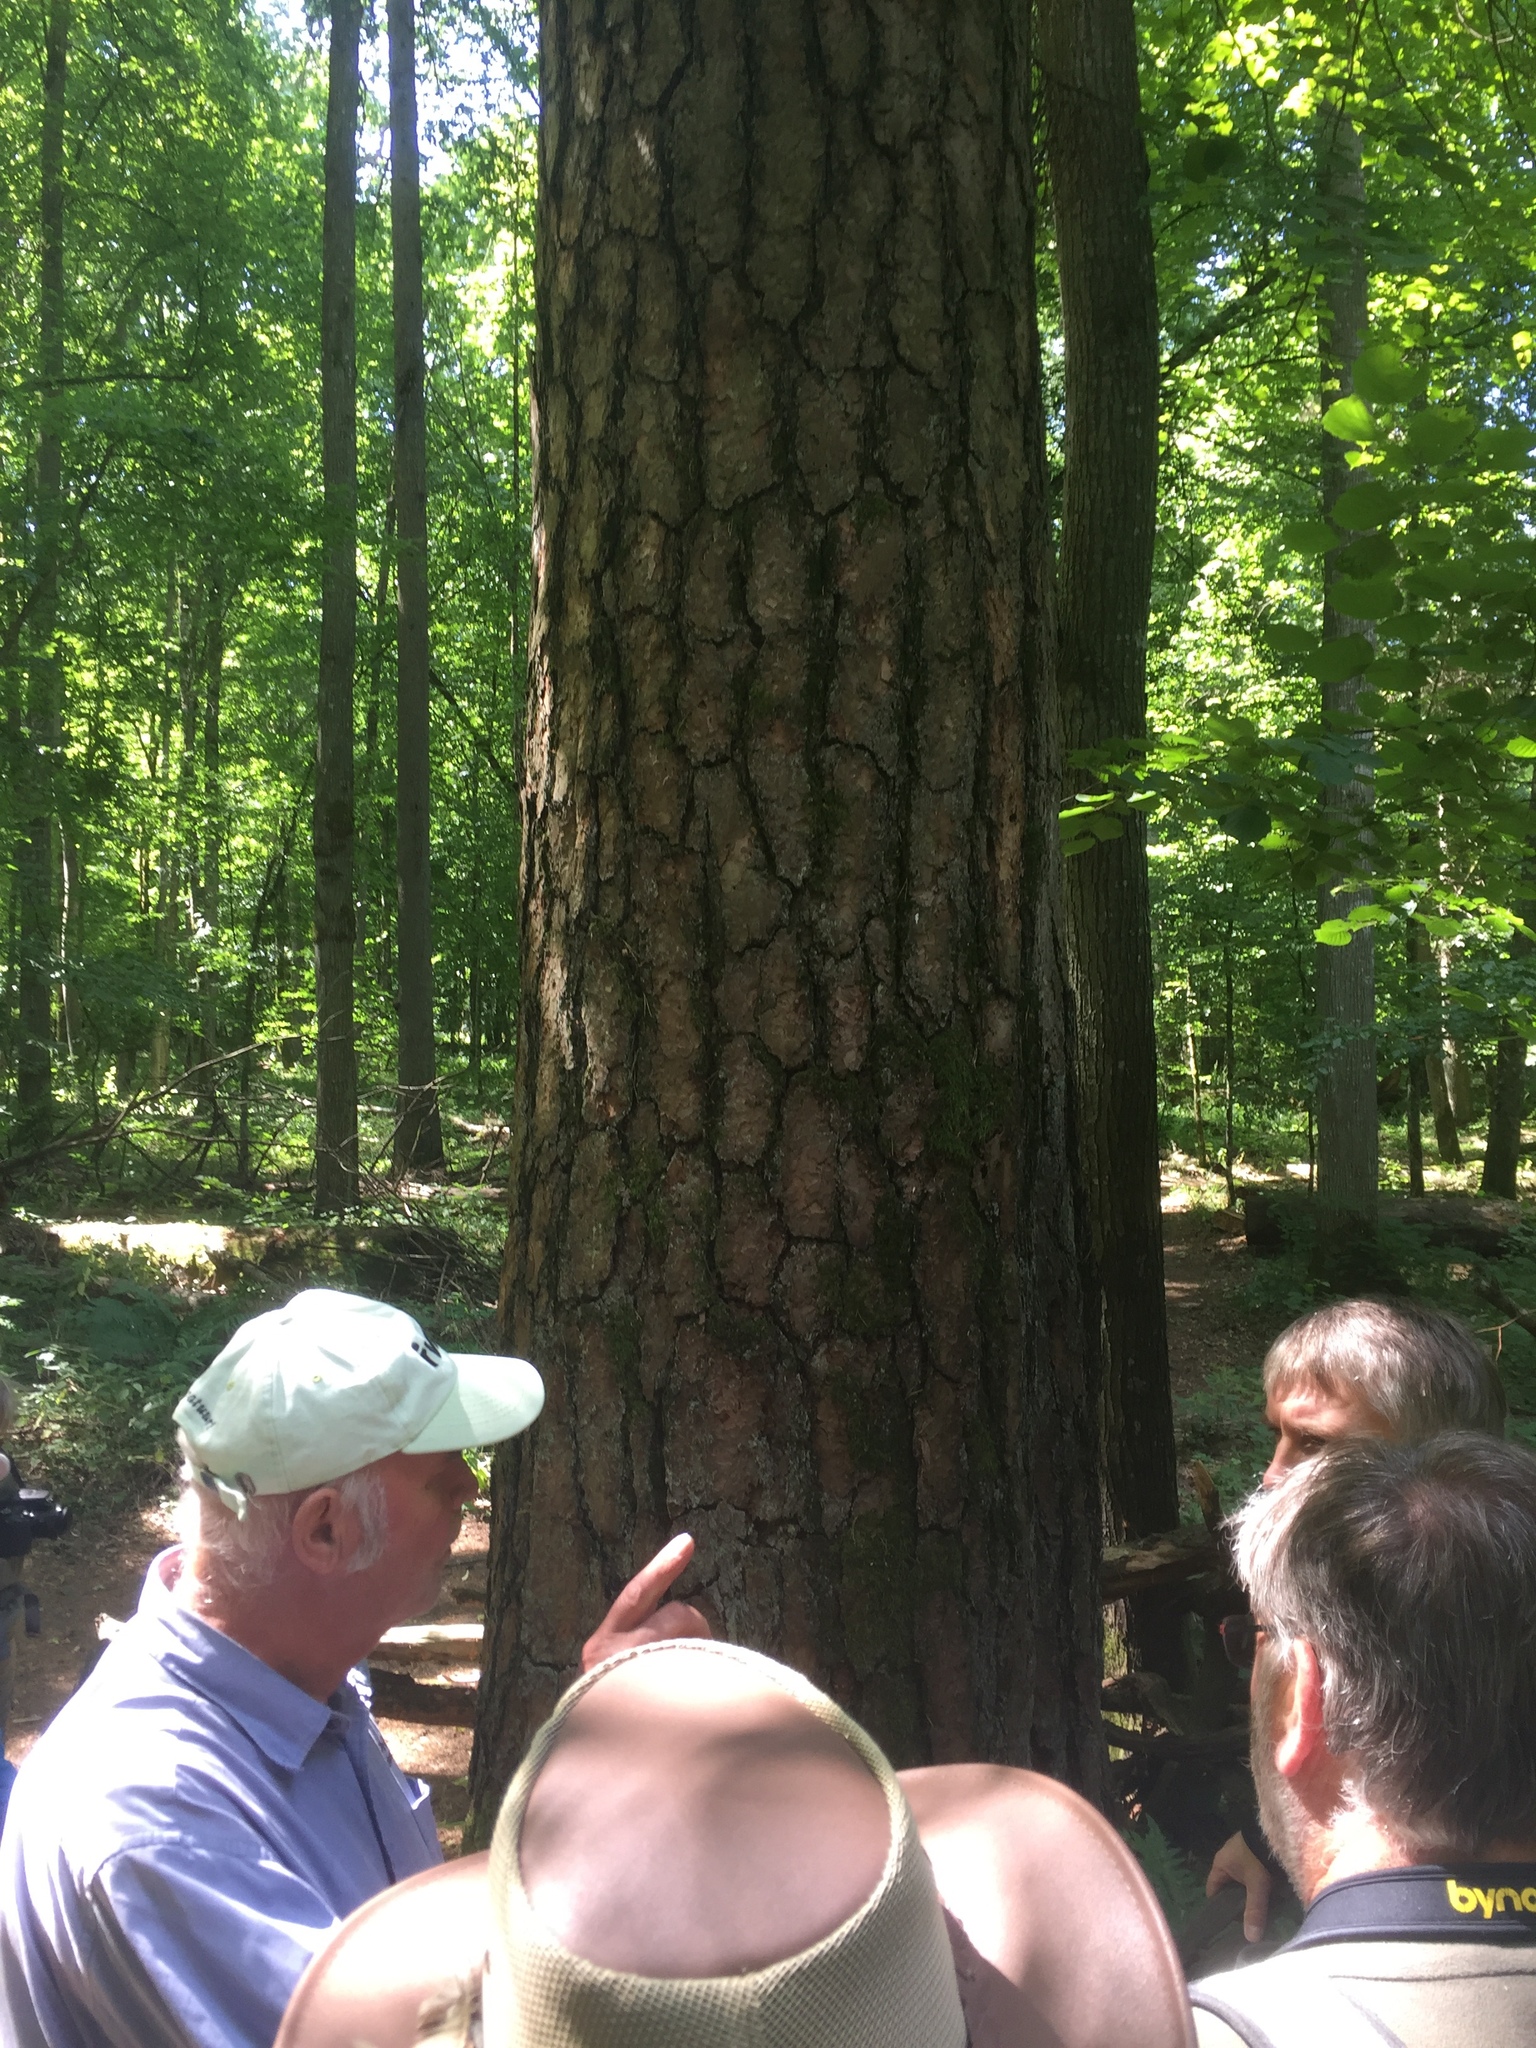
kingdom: Plantae
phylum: Tracheophyta
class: Pinopsida
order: Pinales
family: Pinaceae
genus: Pinus
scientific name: Pinus sylvestris
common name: Scots pine
